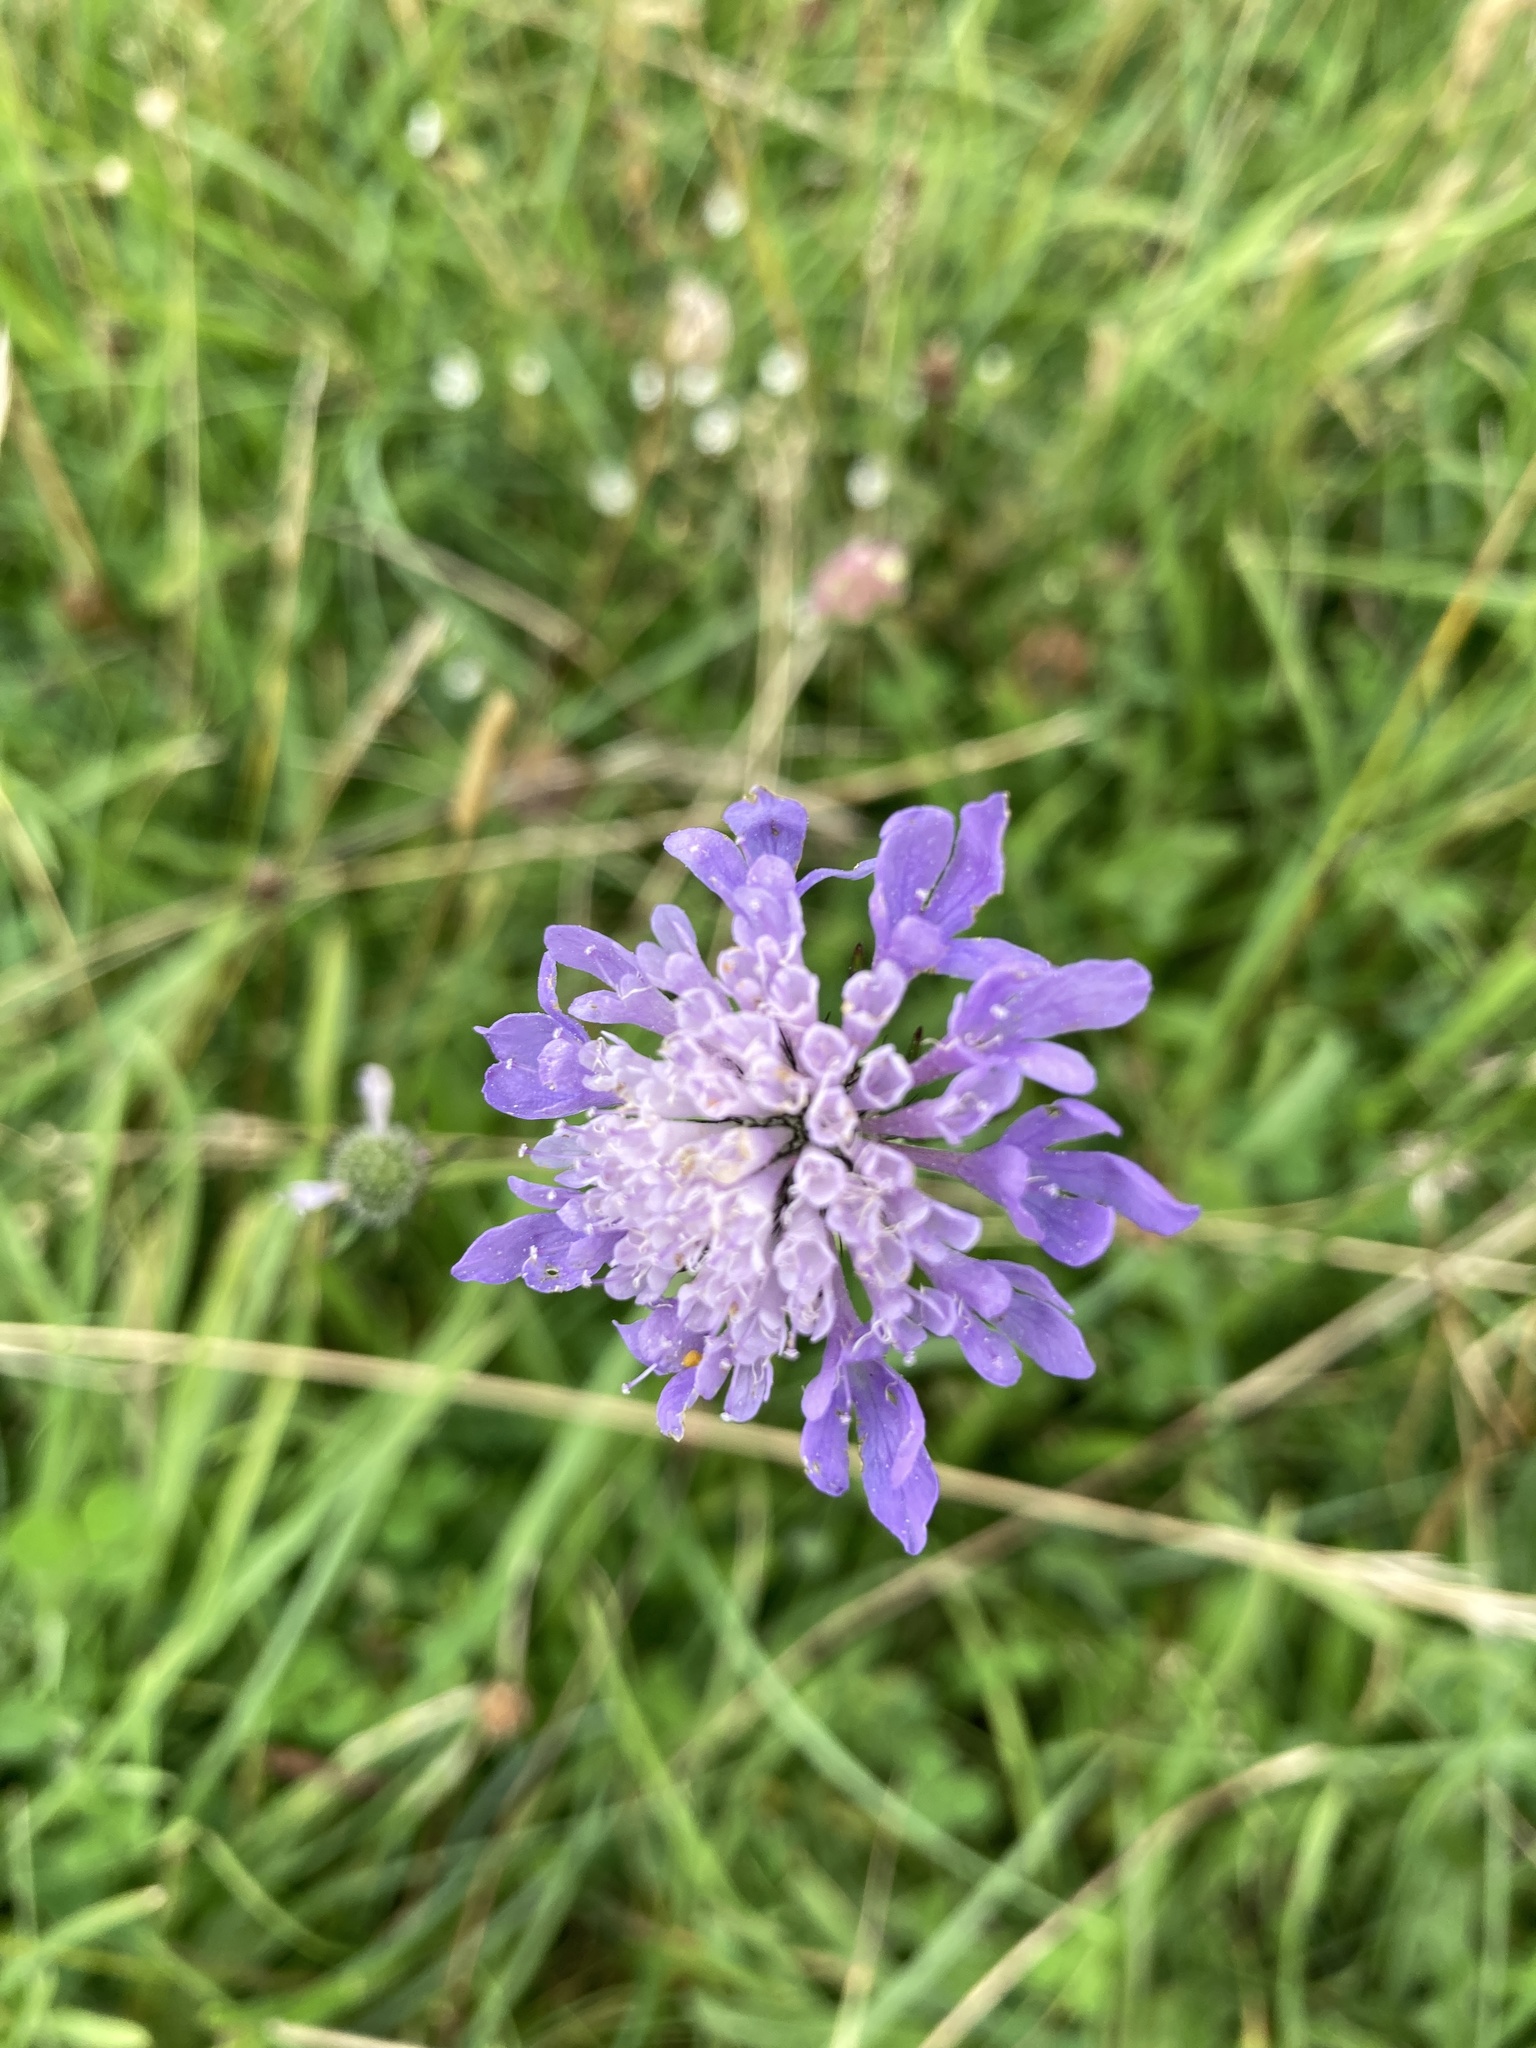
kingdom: Plantae
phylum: Tracheophyta
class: Magnoliopsida
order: Dipsacales
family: Caprifoliaceae
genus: Scabiosa
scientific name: Scabiosa columbaria
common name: Small scabious
